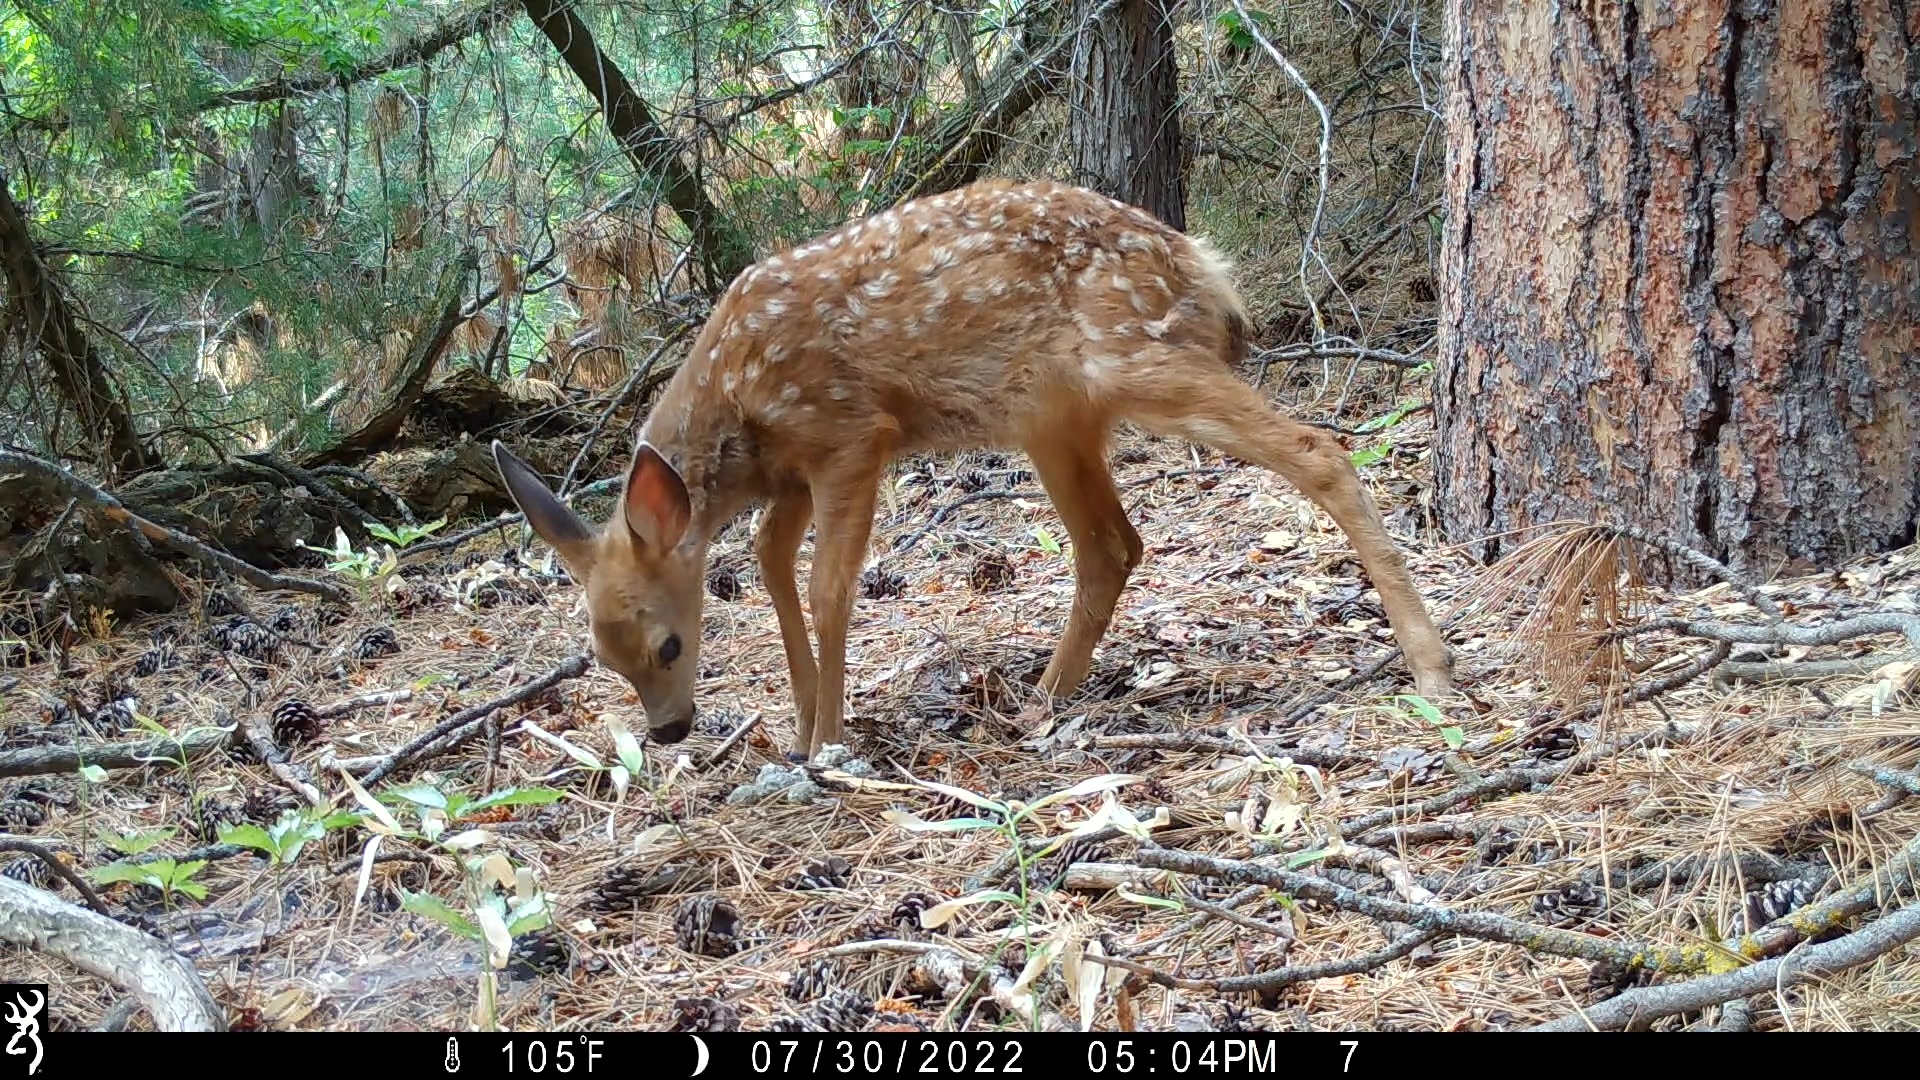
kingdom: Animalia
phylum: Chordata
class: Mammalia
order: Artiodactyla
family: Cervidae
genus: Odocoileus
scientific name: Odocoileus hemionus
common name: Mule deer
